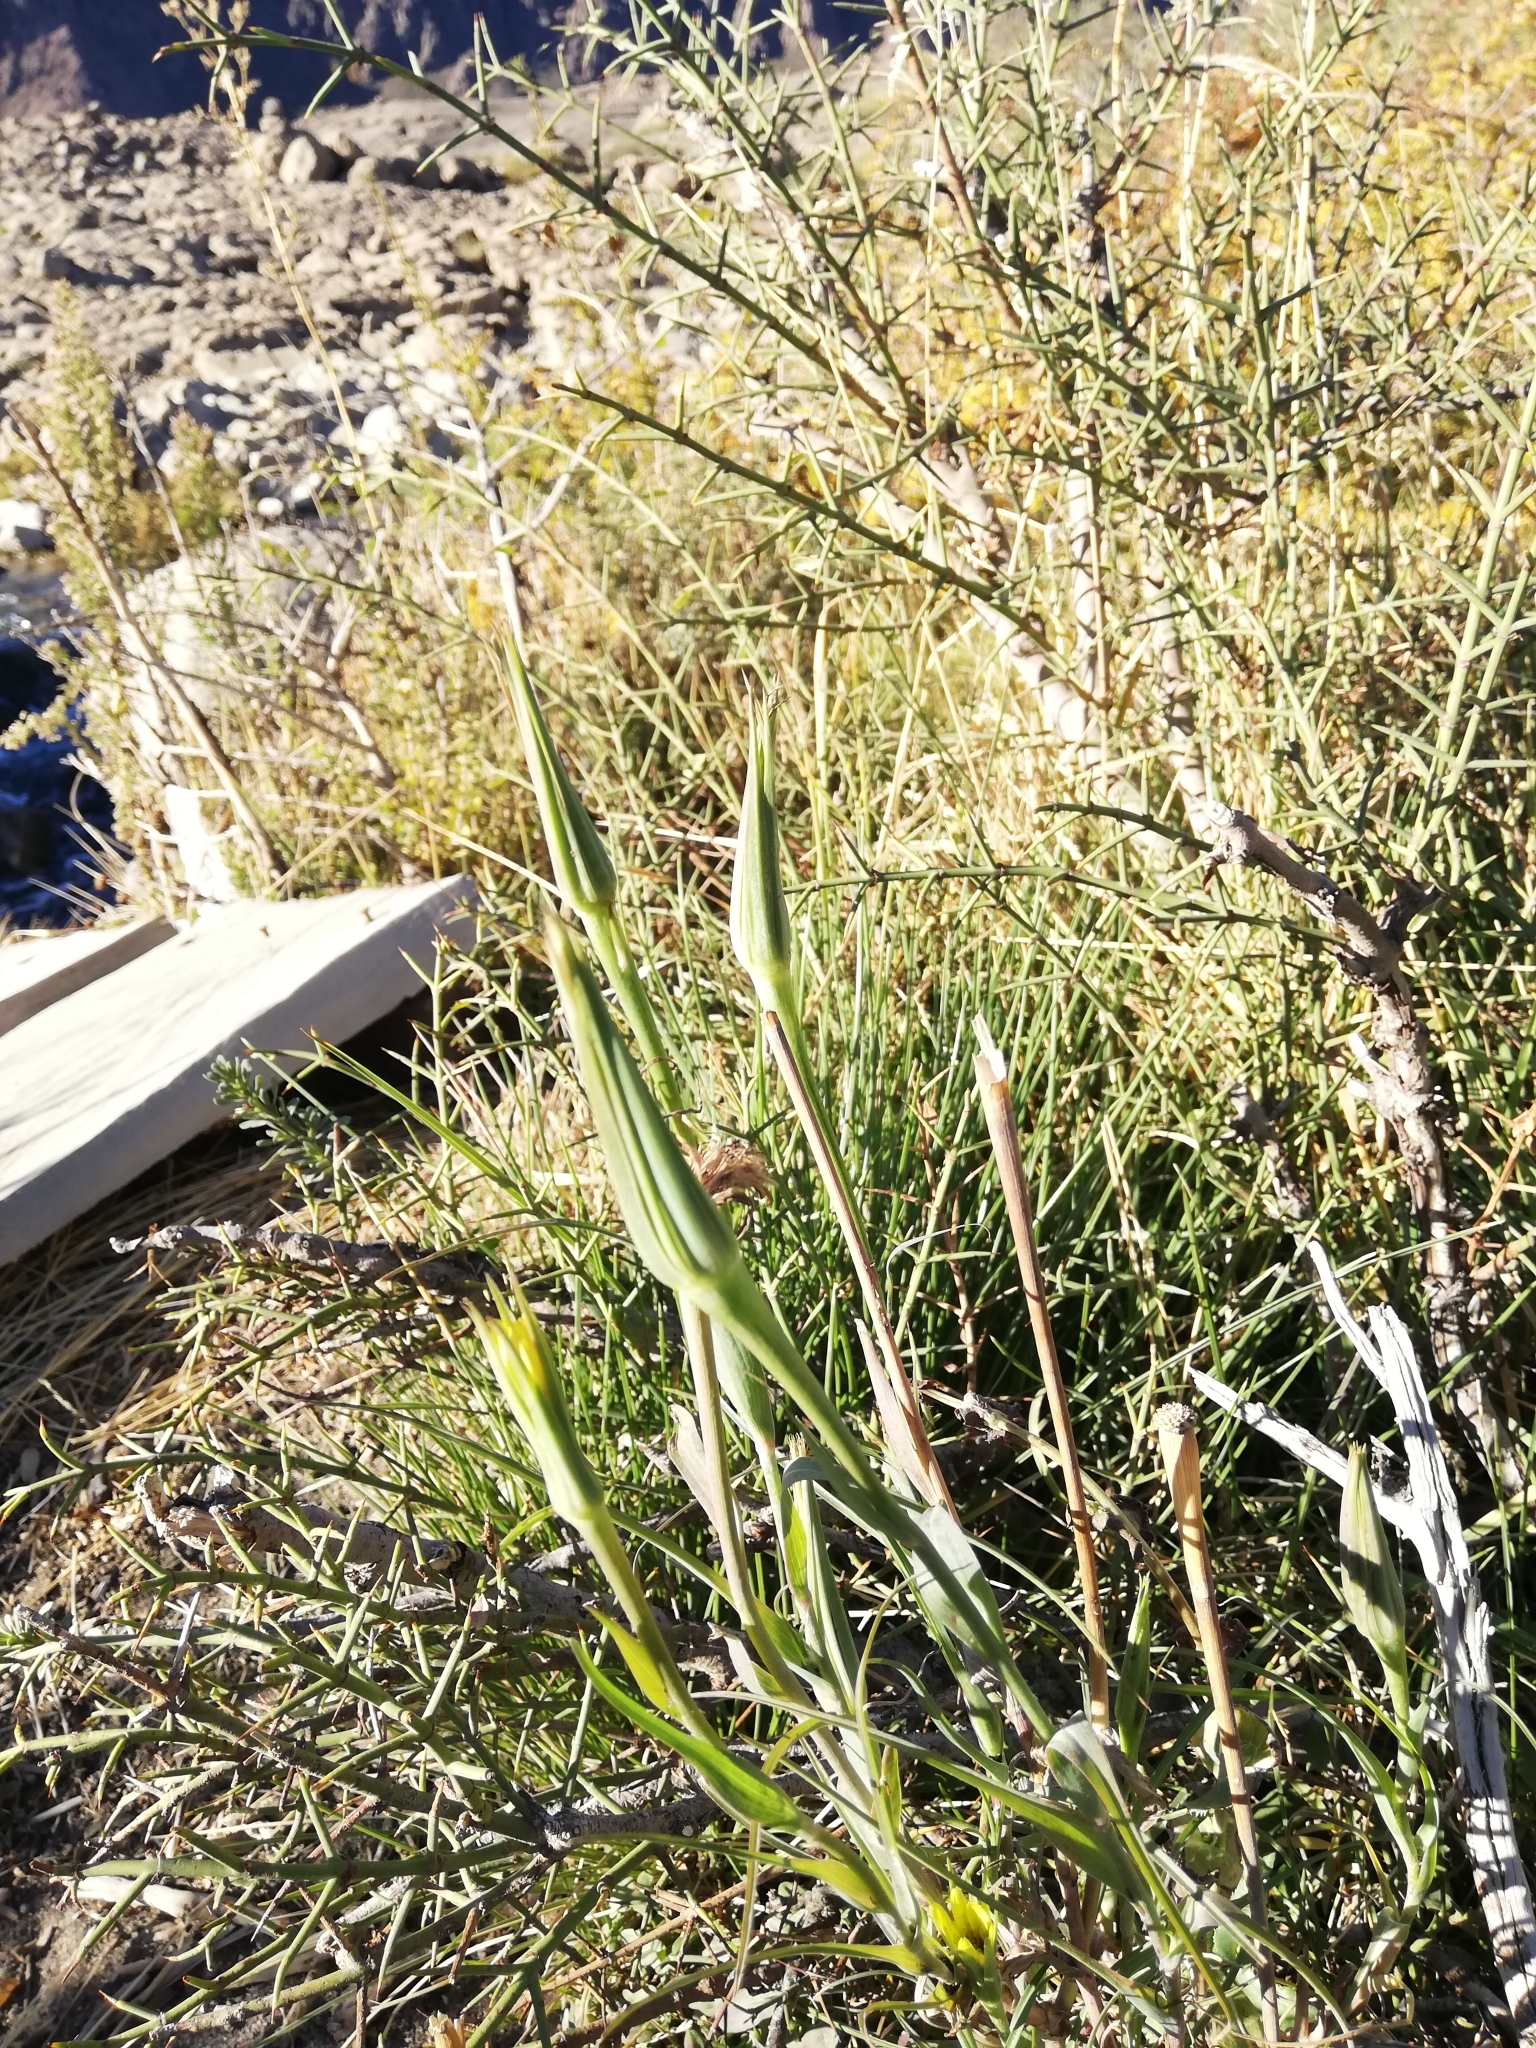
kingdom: Plantae
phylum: Tracheophyta
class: Magnoliopsida
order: Asterales
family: Asteraceae
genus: Tragopogon
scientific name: Tragopogon dubius
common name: Yellow salsify
